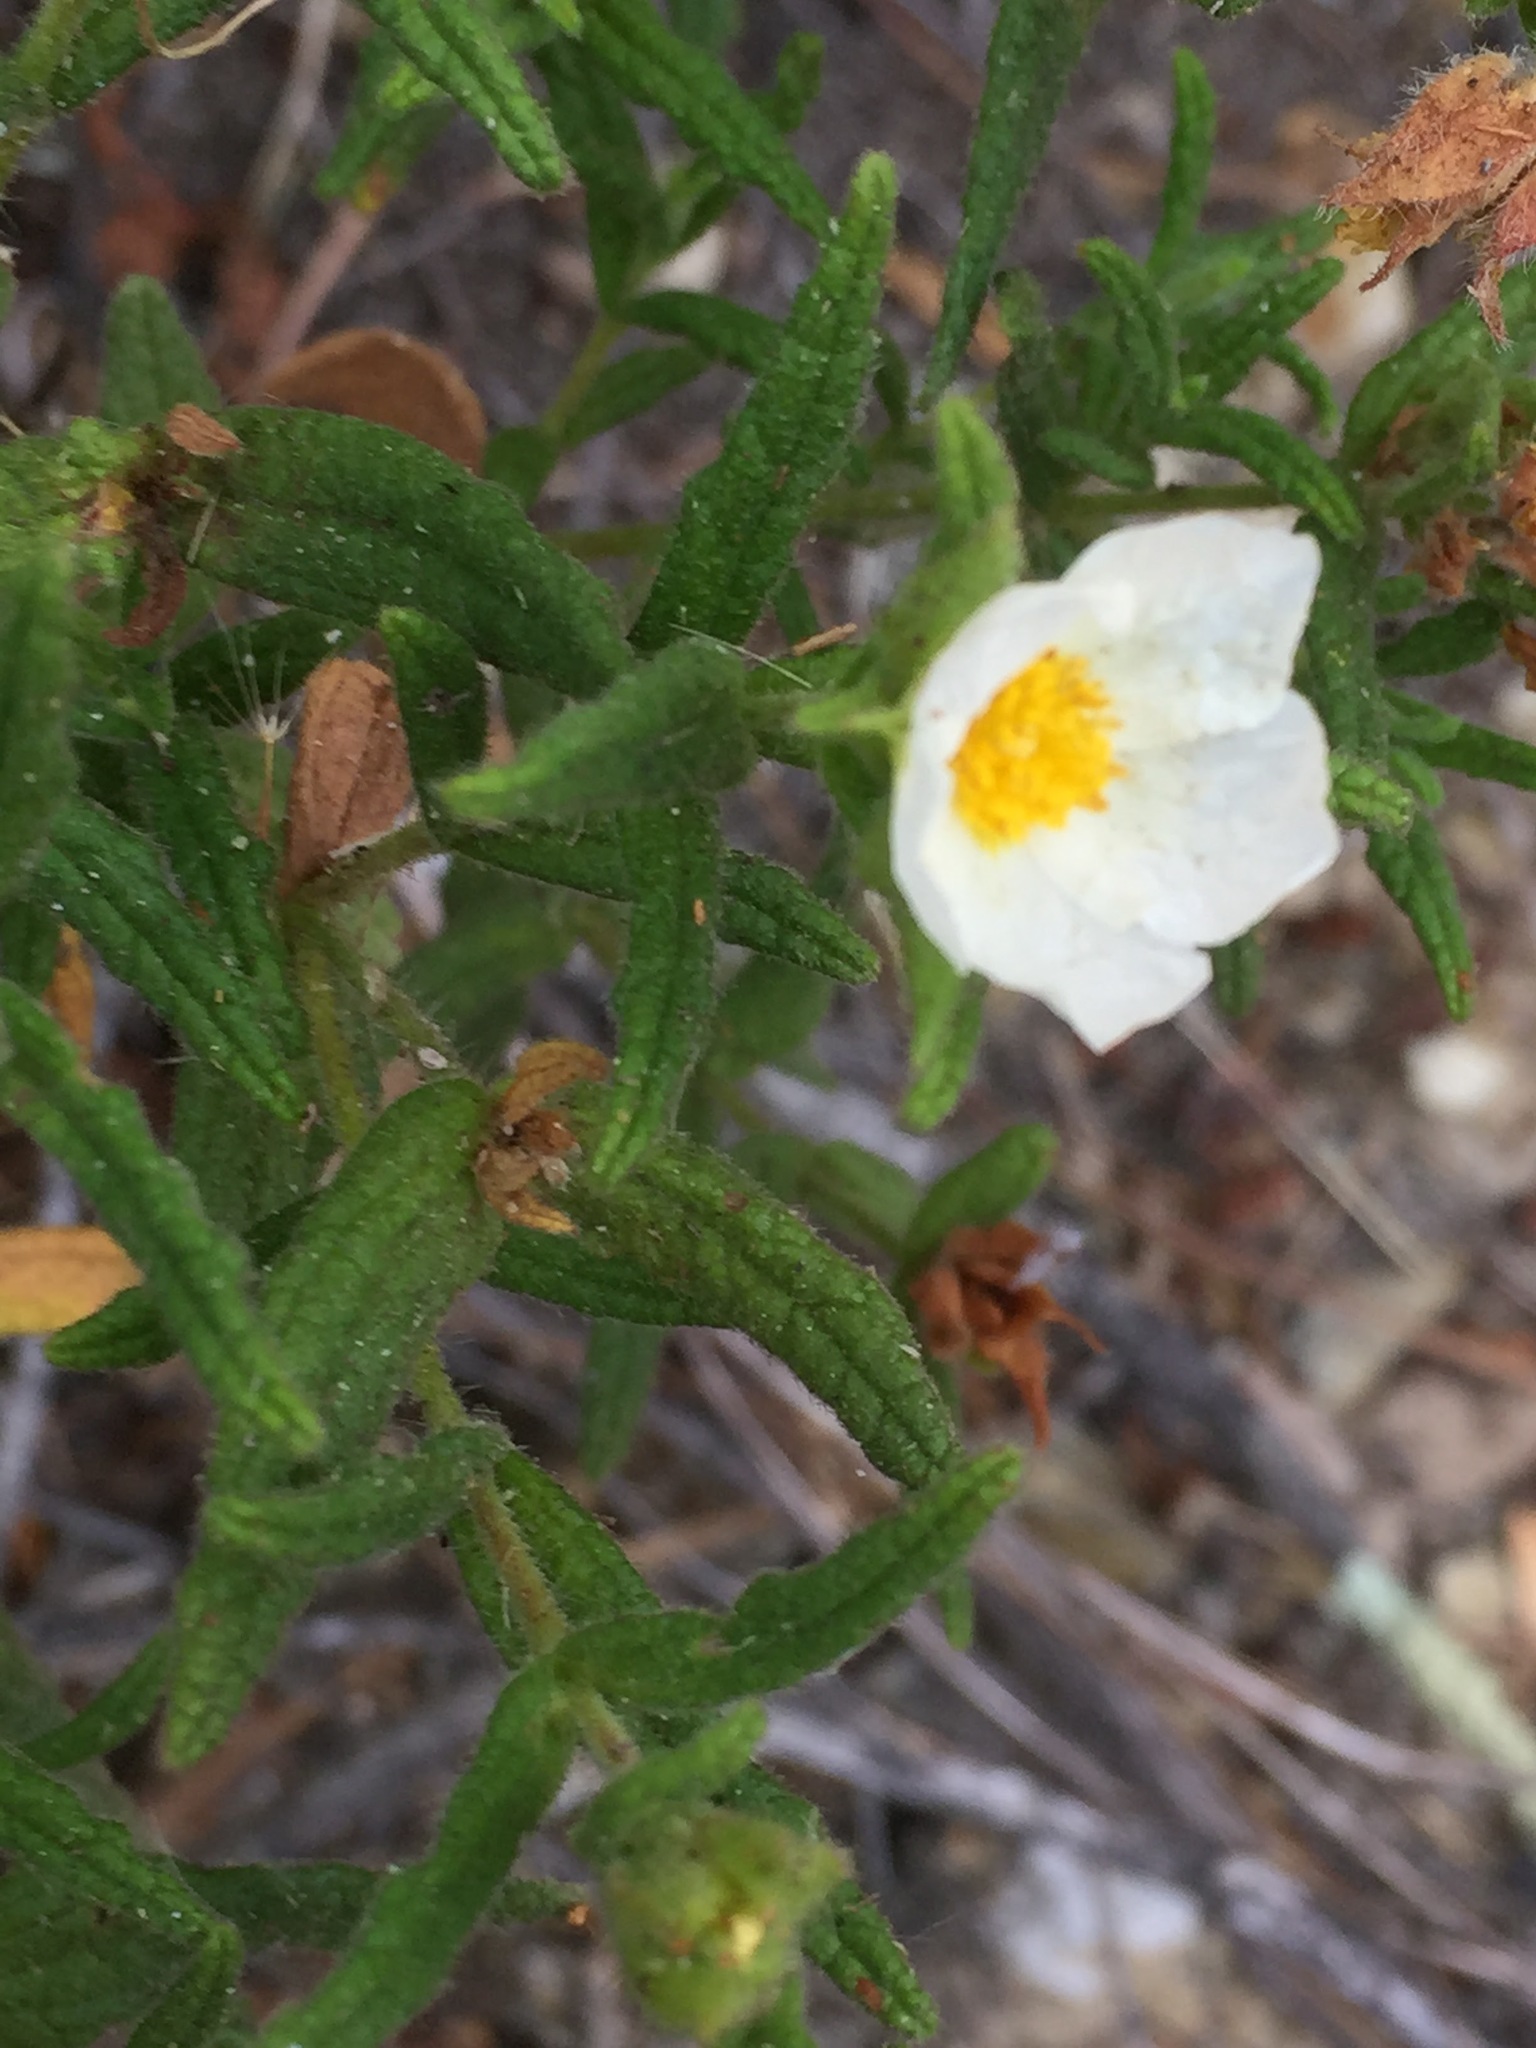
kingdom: Plantae
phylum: Tracheophyta
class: Magnoliopsida
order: Malvales
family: Cistaceae
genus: Cistus
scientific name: Cistus inflatus
